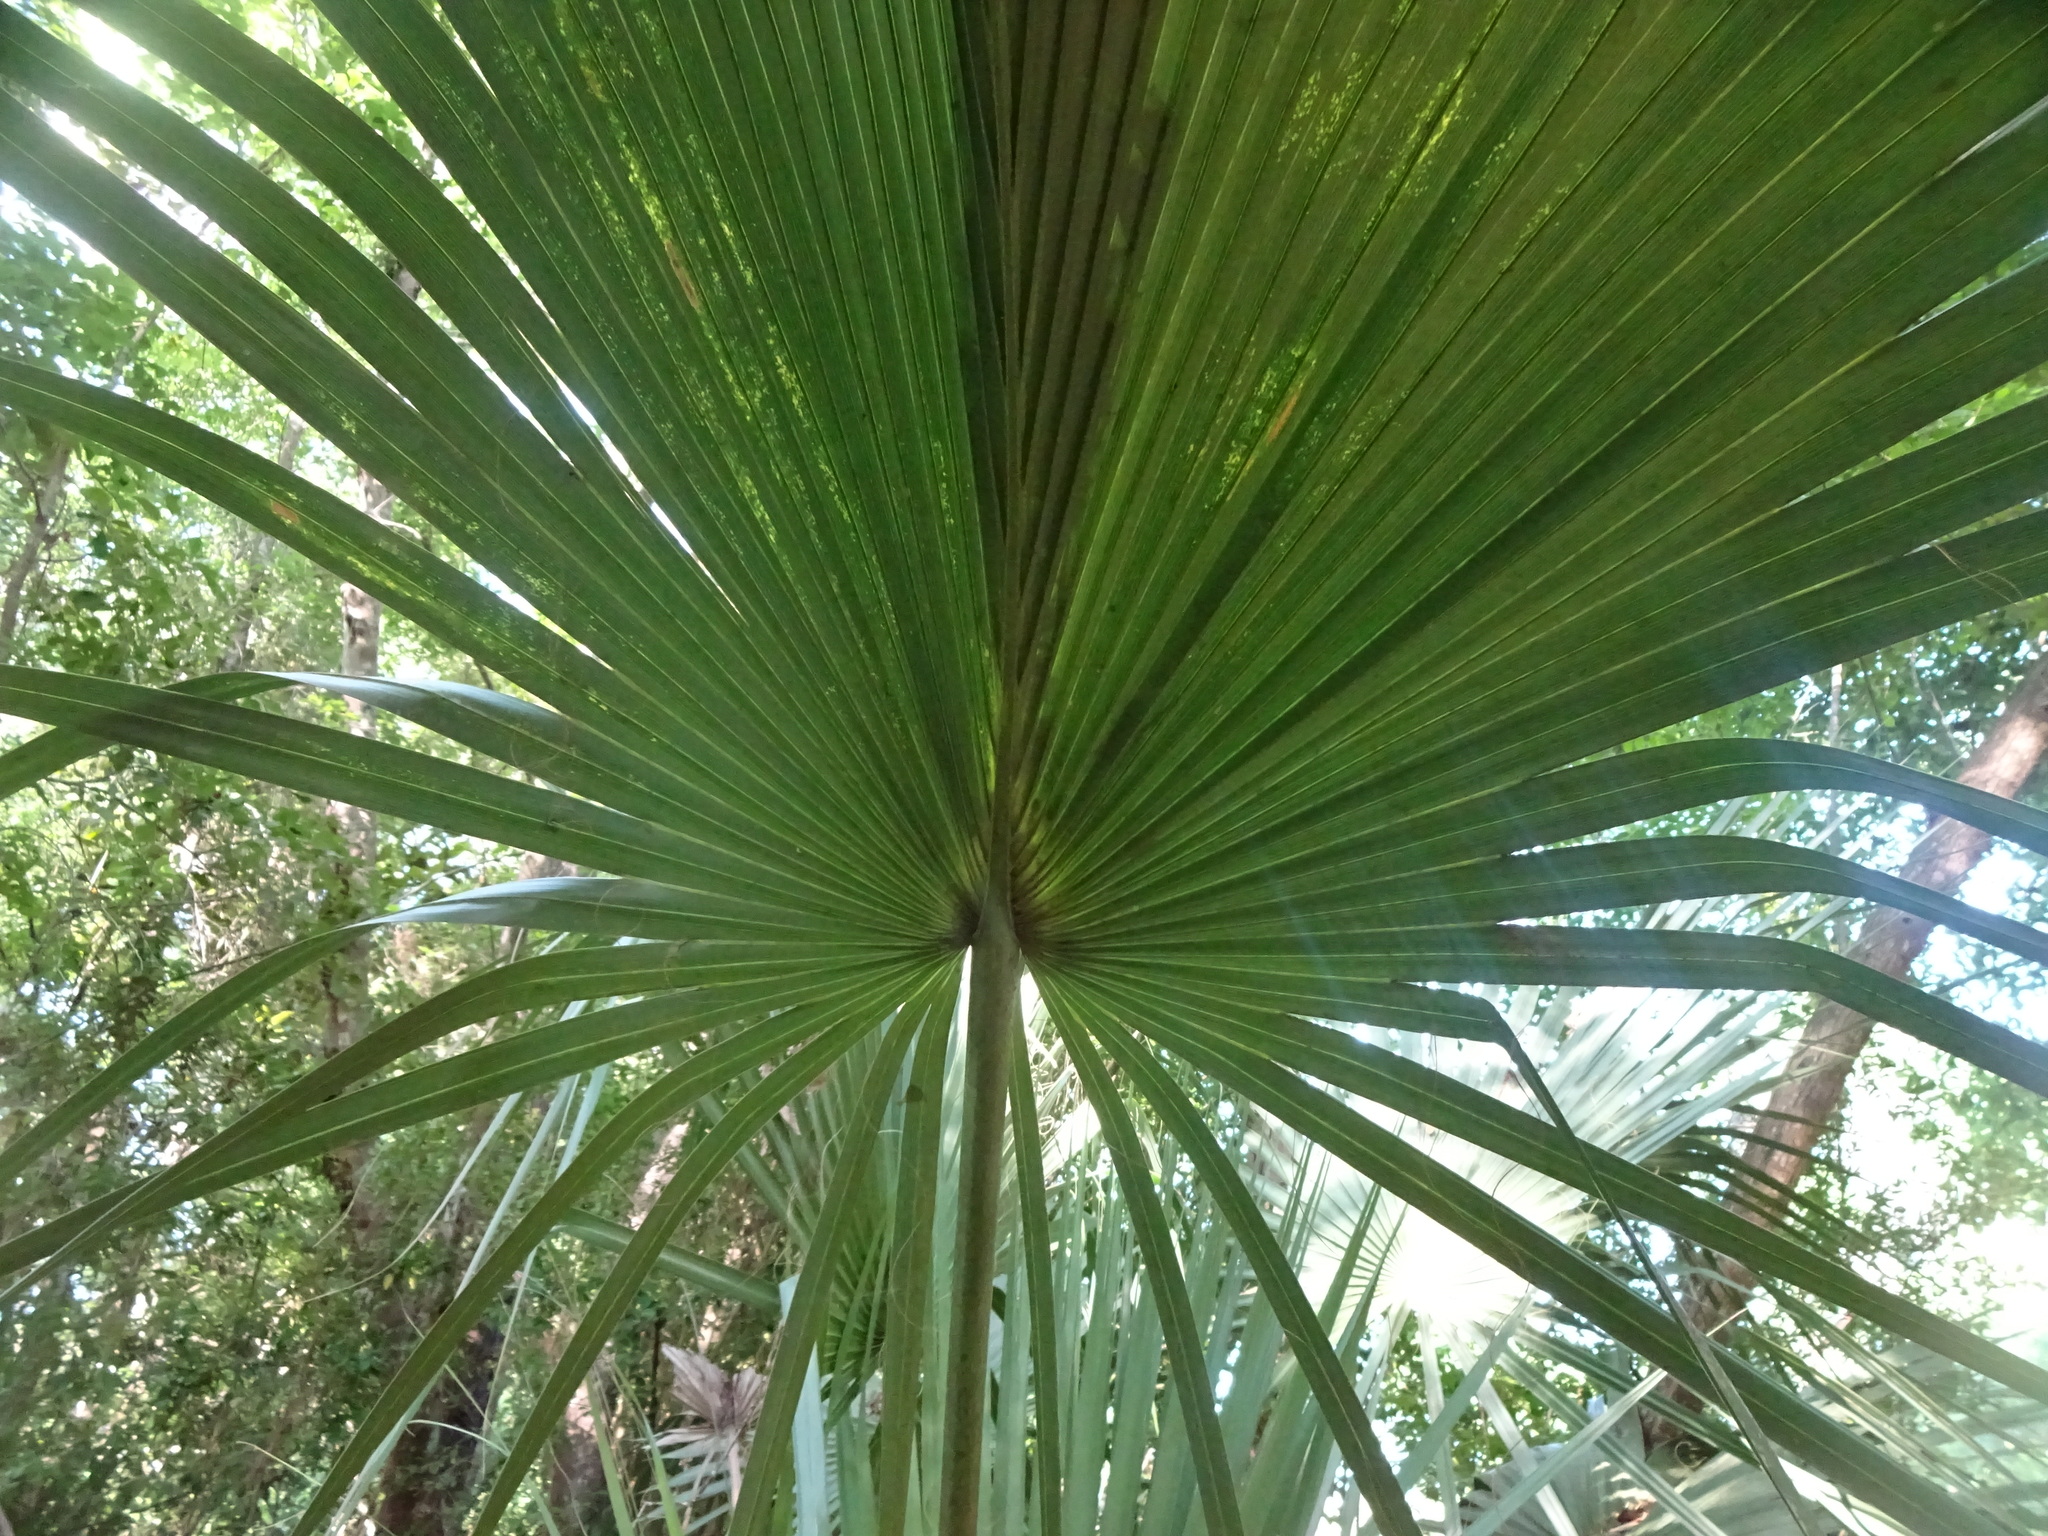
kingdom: Plantae
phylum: Tracheophyta
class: Liliopsida
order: Arecales
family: Arecaceae
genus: Sabal
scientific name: Sabal palmetto
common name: Blue palmetto
